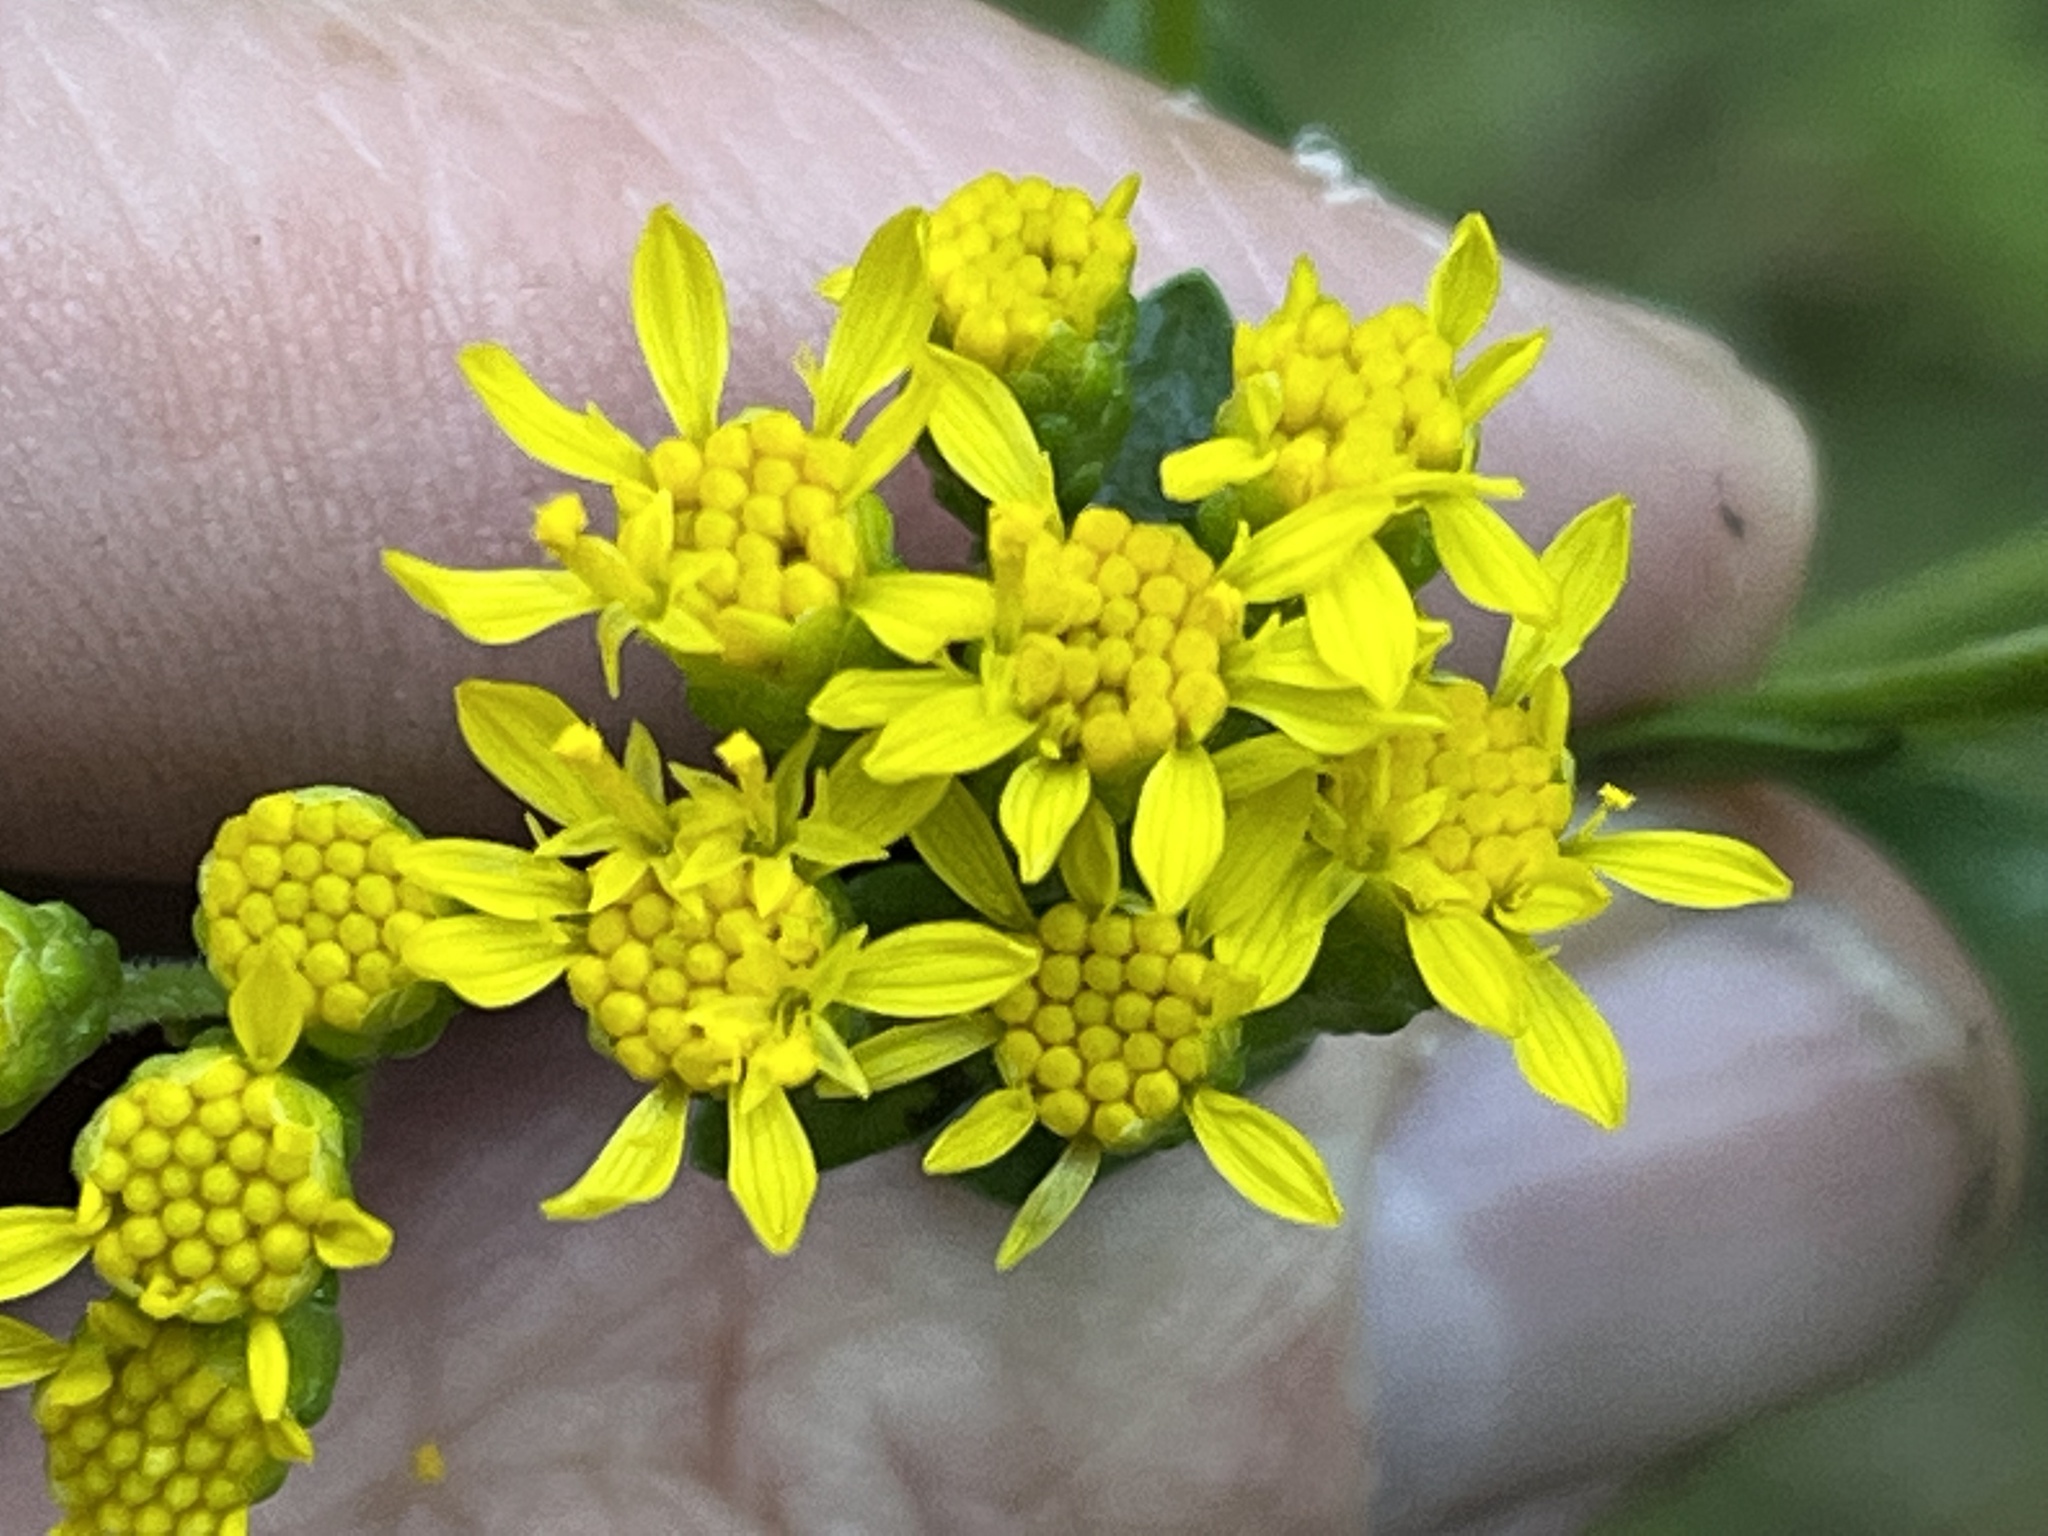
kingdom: Plantae
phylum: Tracheophyta
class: Magnoliopsida
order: Asterales
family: Asteraceae
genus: Solidago
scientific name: Solidago rigida
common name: Rigid goldenrod
